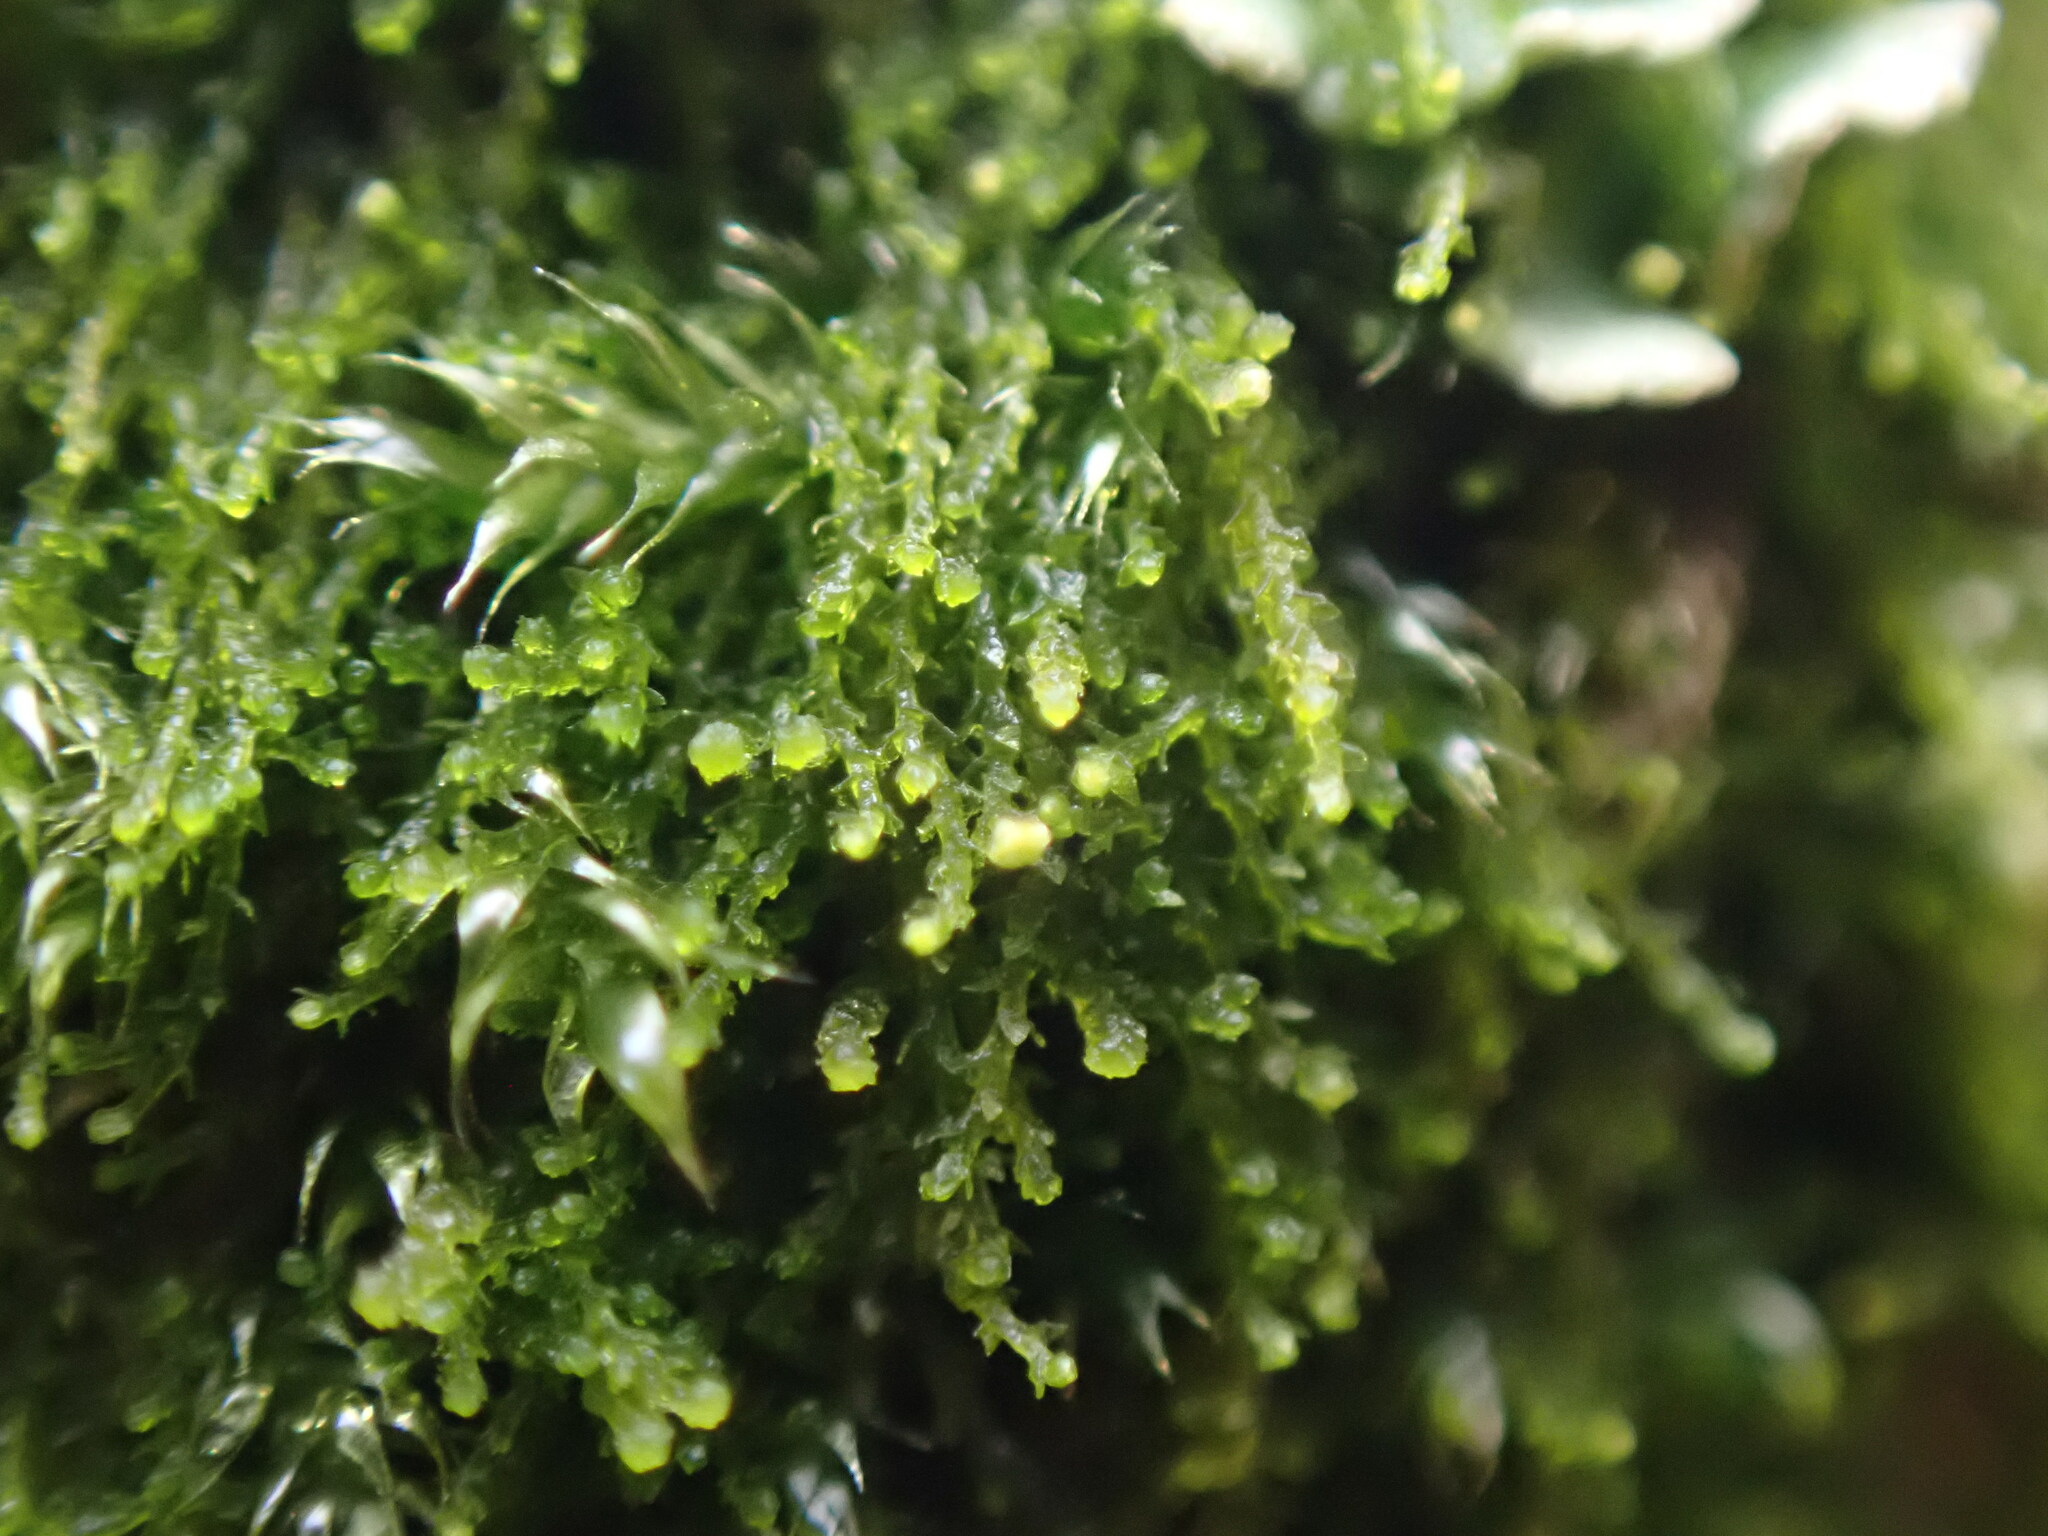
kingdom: Plantae
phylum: Marchantiophyta
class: Jungermanniopsida
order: Jungermanniales
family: Cephaloziellaceae
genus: Cephaloziella
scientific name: Cephaloziella divaricata
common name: Spreading threadwort
